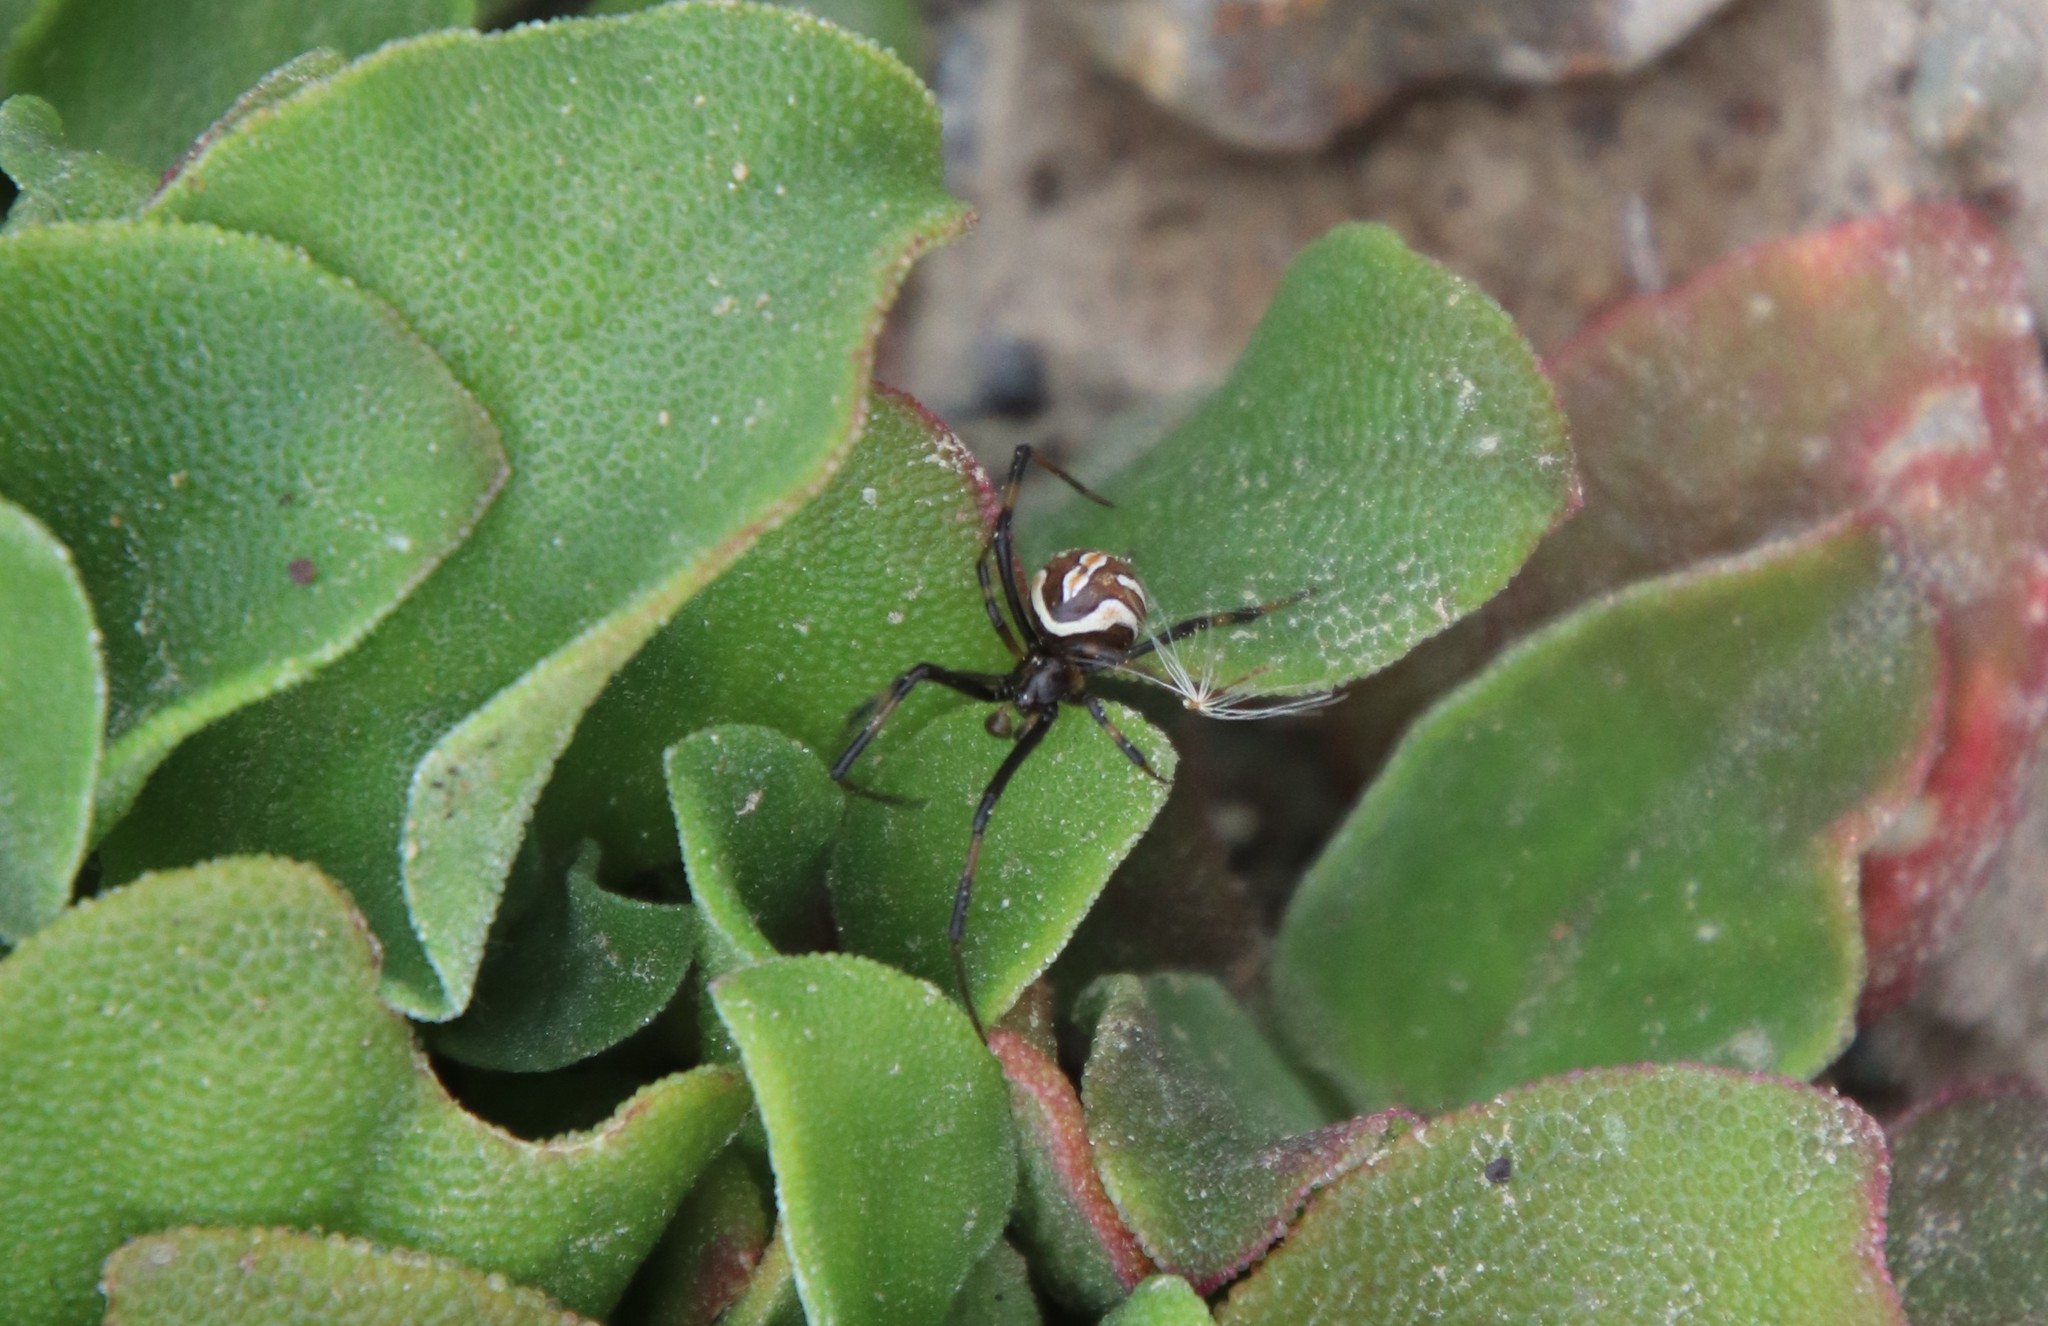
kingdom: Animalia
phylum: Arthropoda
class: Arachnida
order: Araneae
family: Theridiidae
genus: Latrodectus
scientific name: Latrodectus geometricus
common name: Brown widow spider
